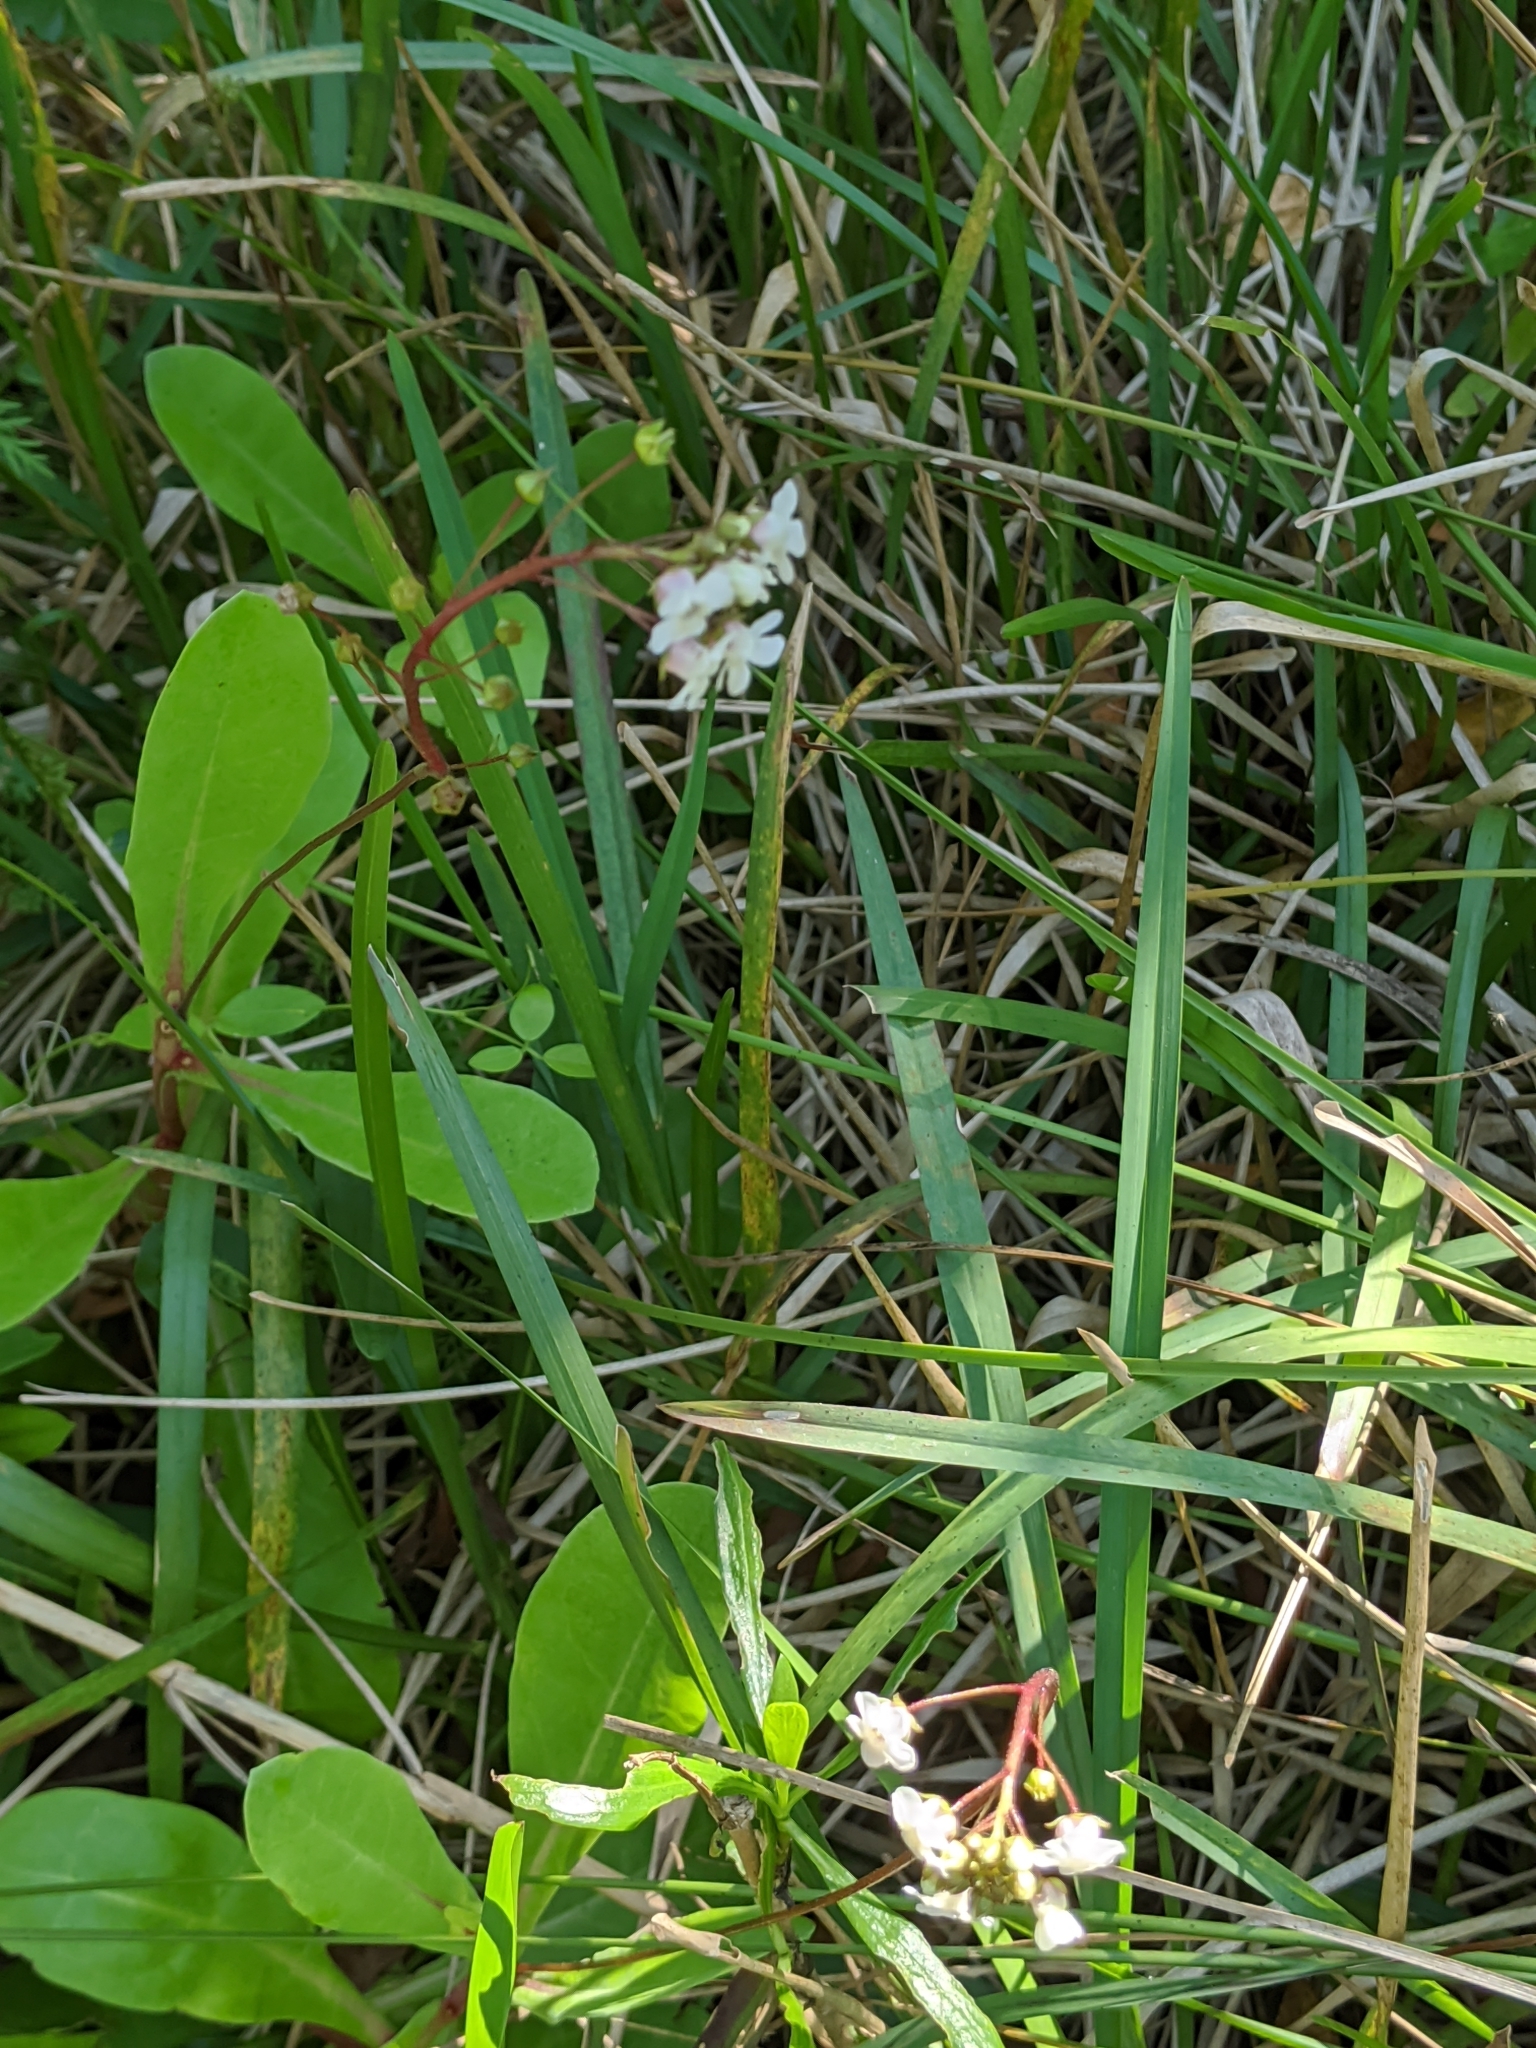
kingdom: Plantae
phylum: Tracheophyta
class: Magnoliopsida
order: Ericales
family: Primulaceae
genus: Samolus
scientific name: Samolus ebracteatus
